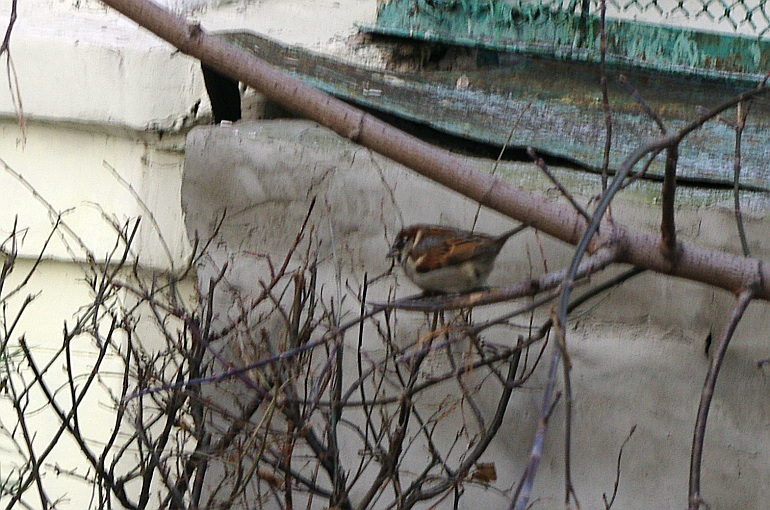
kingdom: Animalia
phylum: Chordata
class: Aves
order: Passeriformes
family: Passeridae
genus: Passer
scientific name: Passer domesticus
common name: House sparrow
